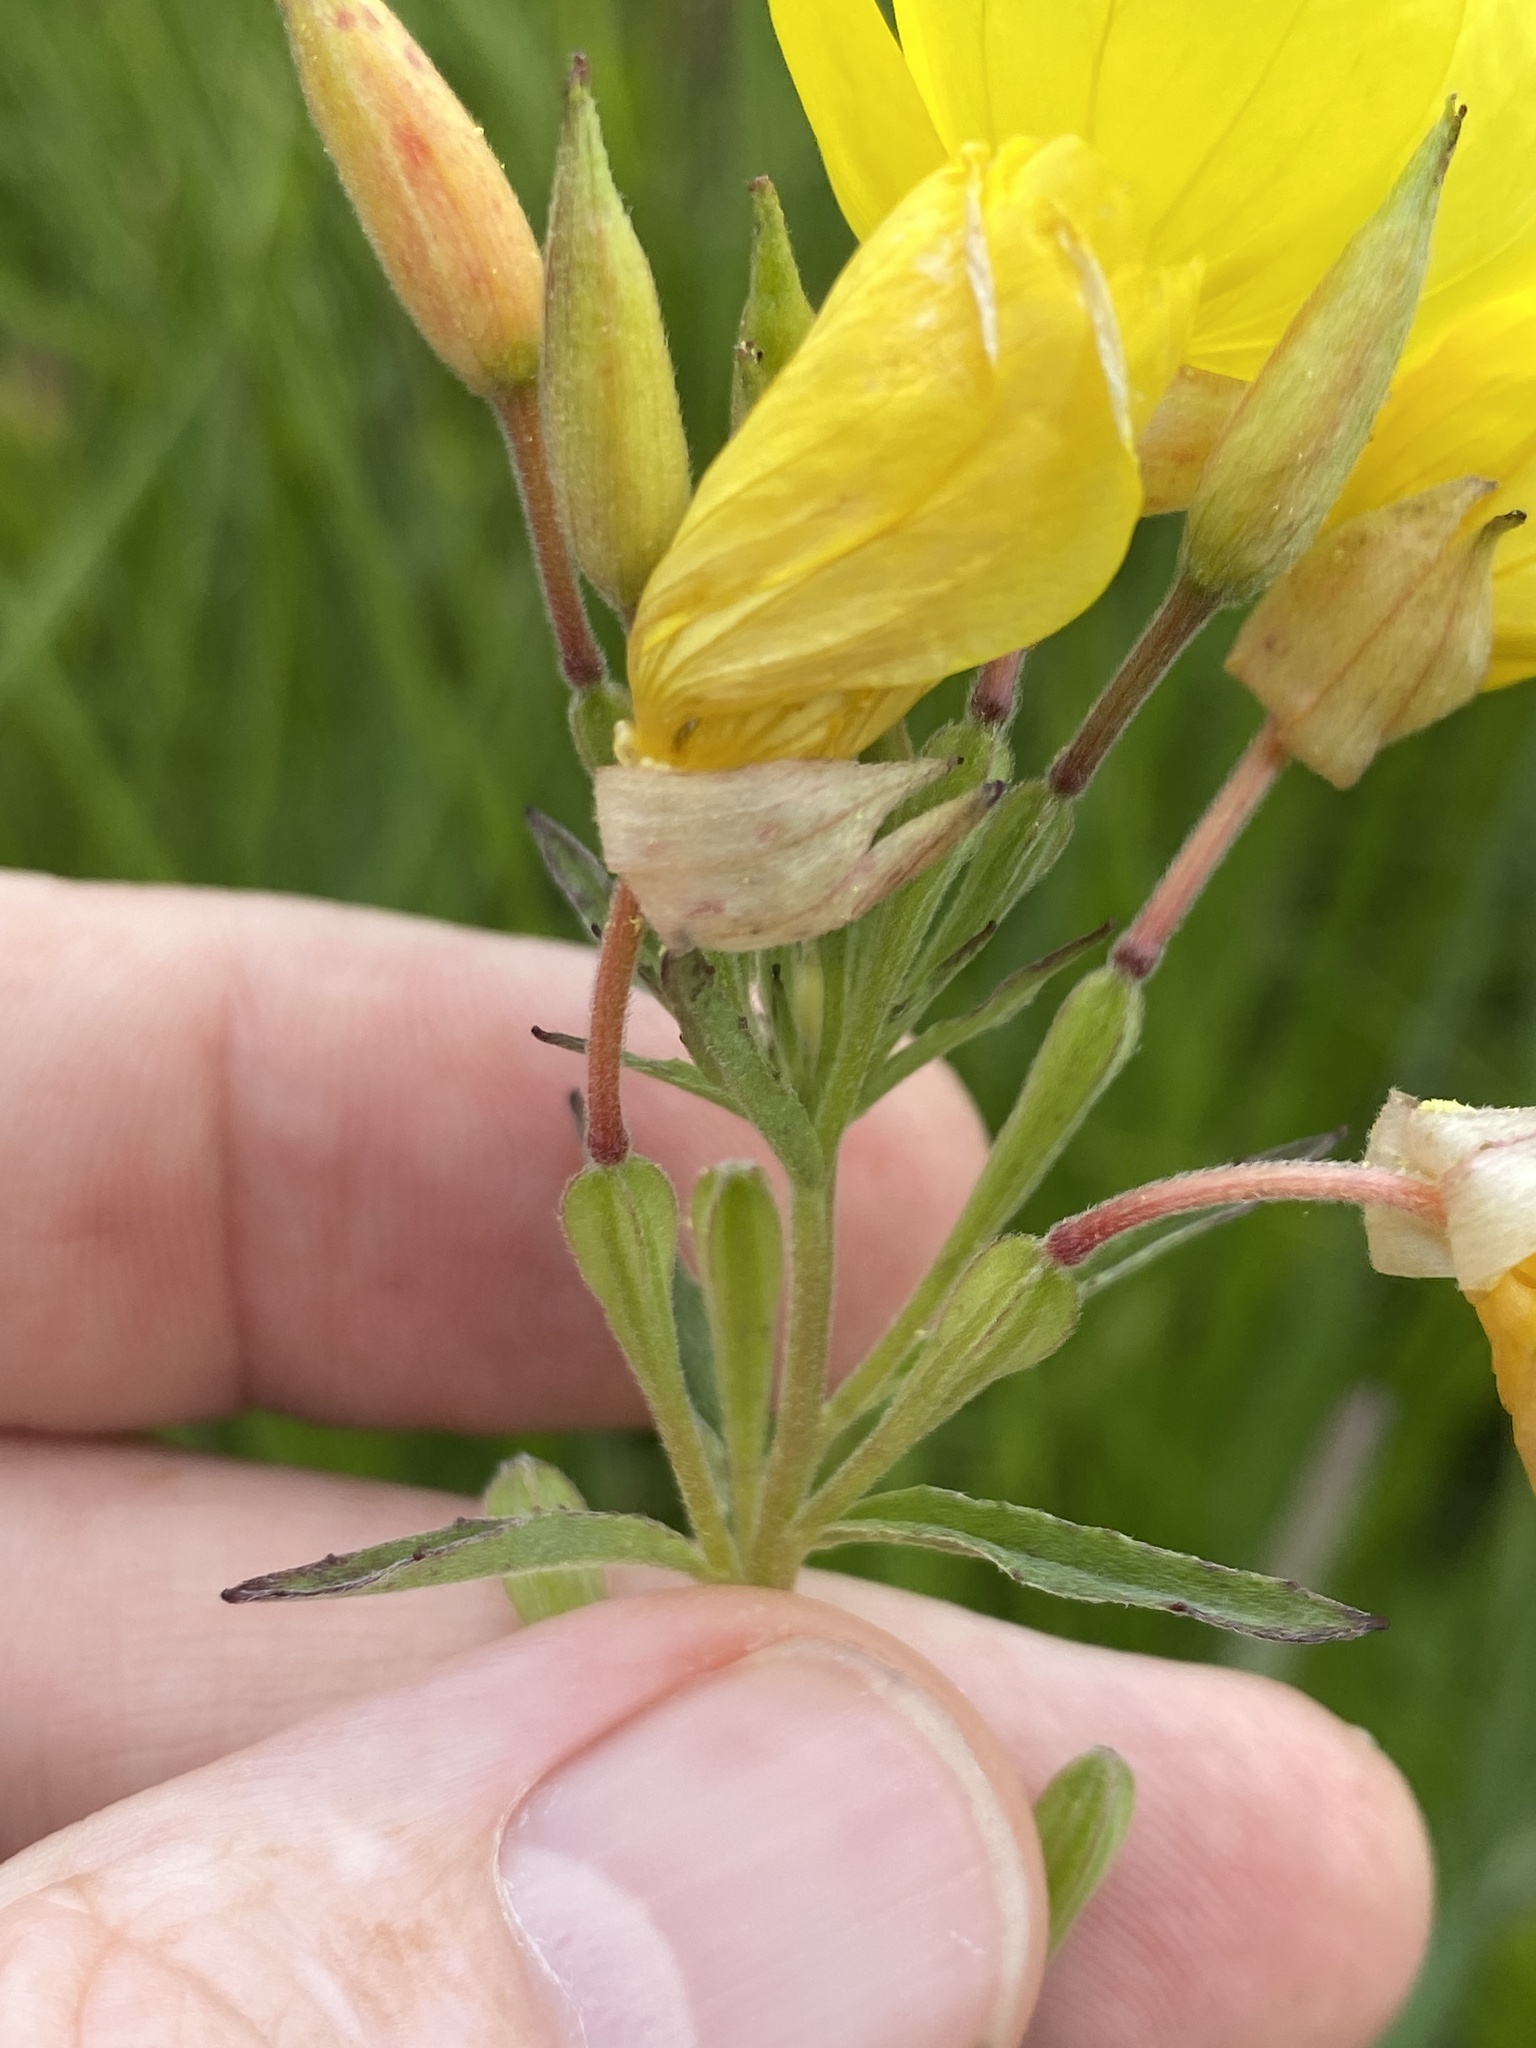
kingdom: Plantae
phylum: Tracheophyta
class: Magnoliopsida
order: Myrtales
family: Onagraceae
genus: Oenothera
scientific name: Oenothera fruticosa
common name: Southern sundrops
